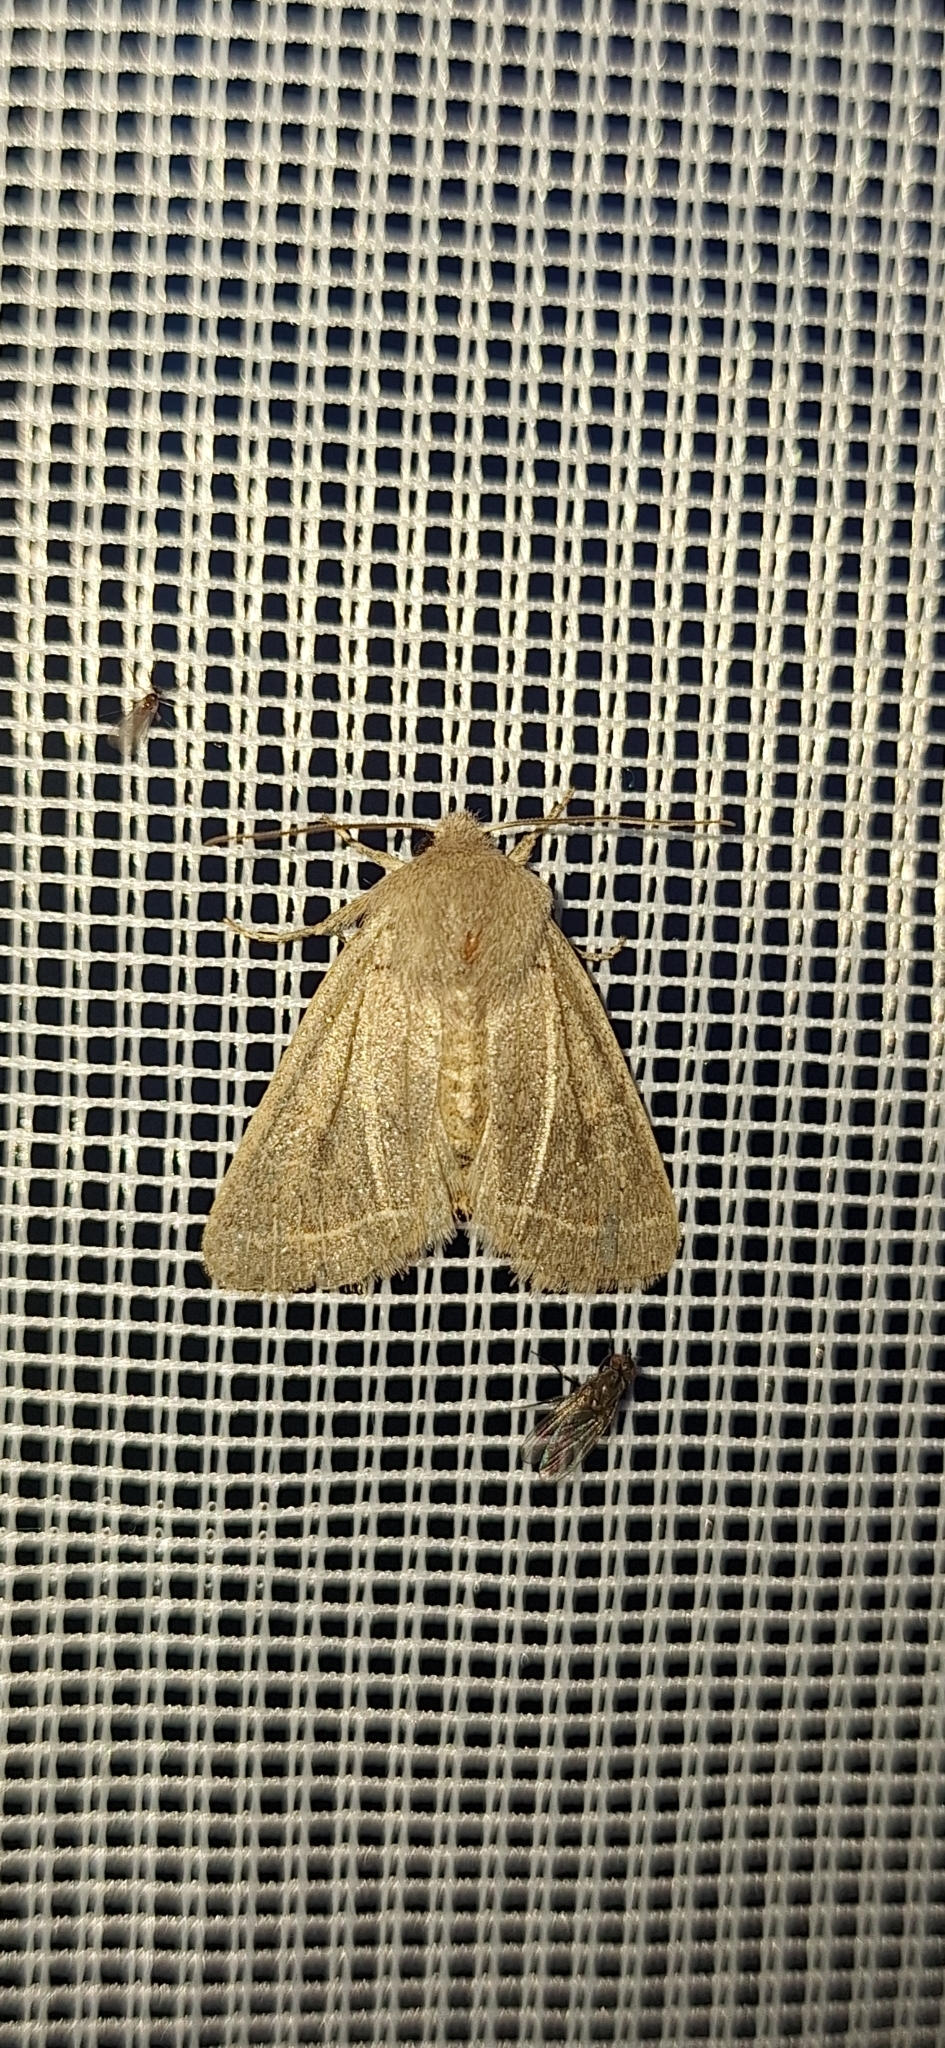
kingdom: Animalia
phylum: Arthropoda
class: Insecta
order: Lepidoptera
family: Noctuidae
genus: Orthosia
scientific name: Orthosia cerasi
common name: Common quaker
